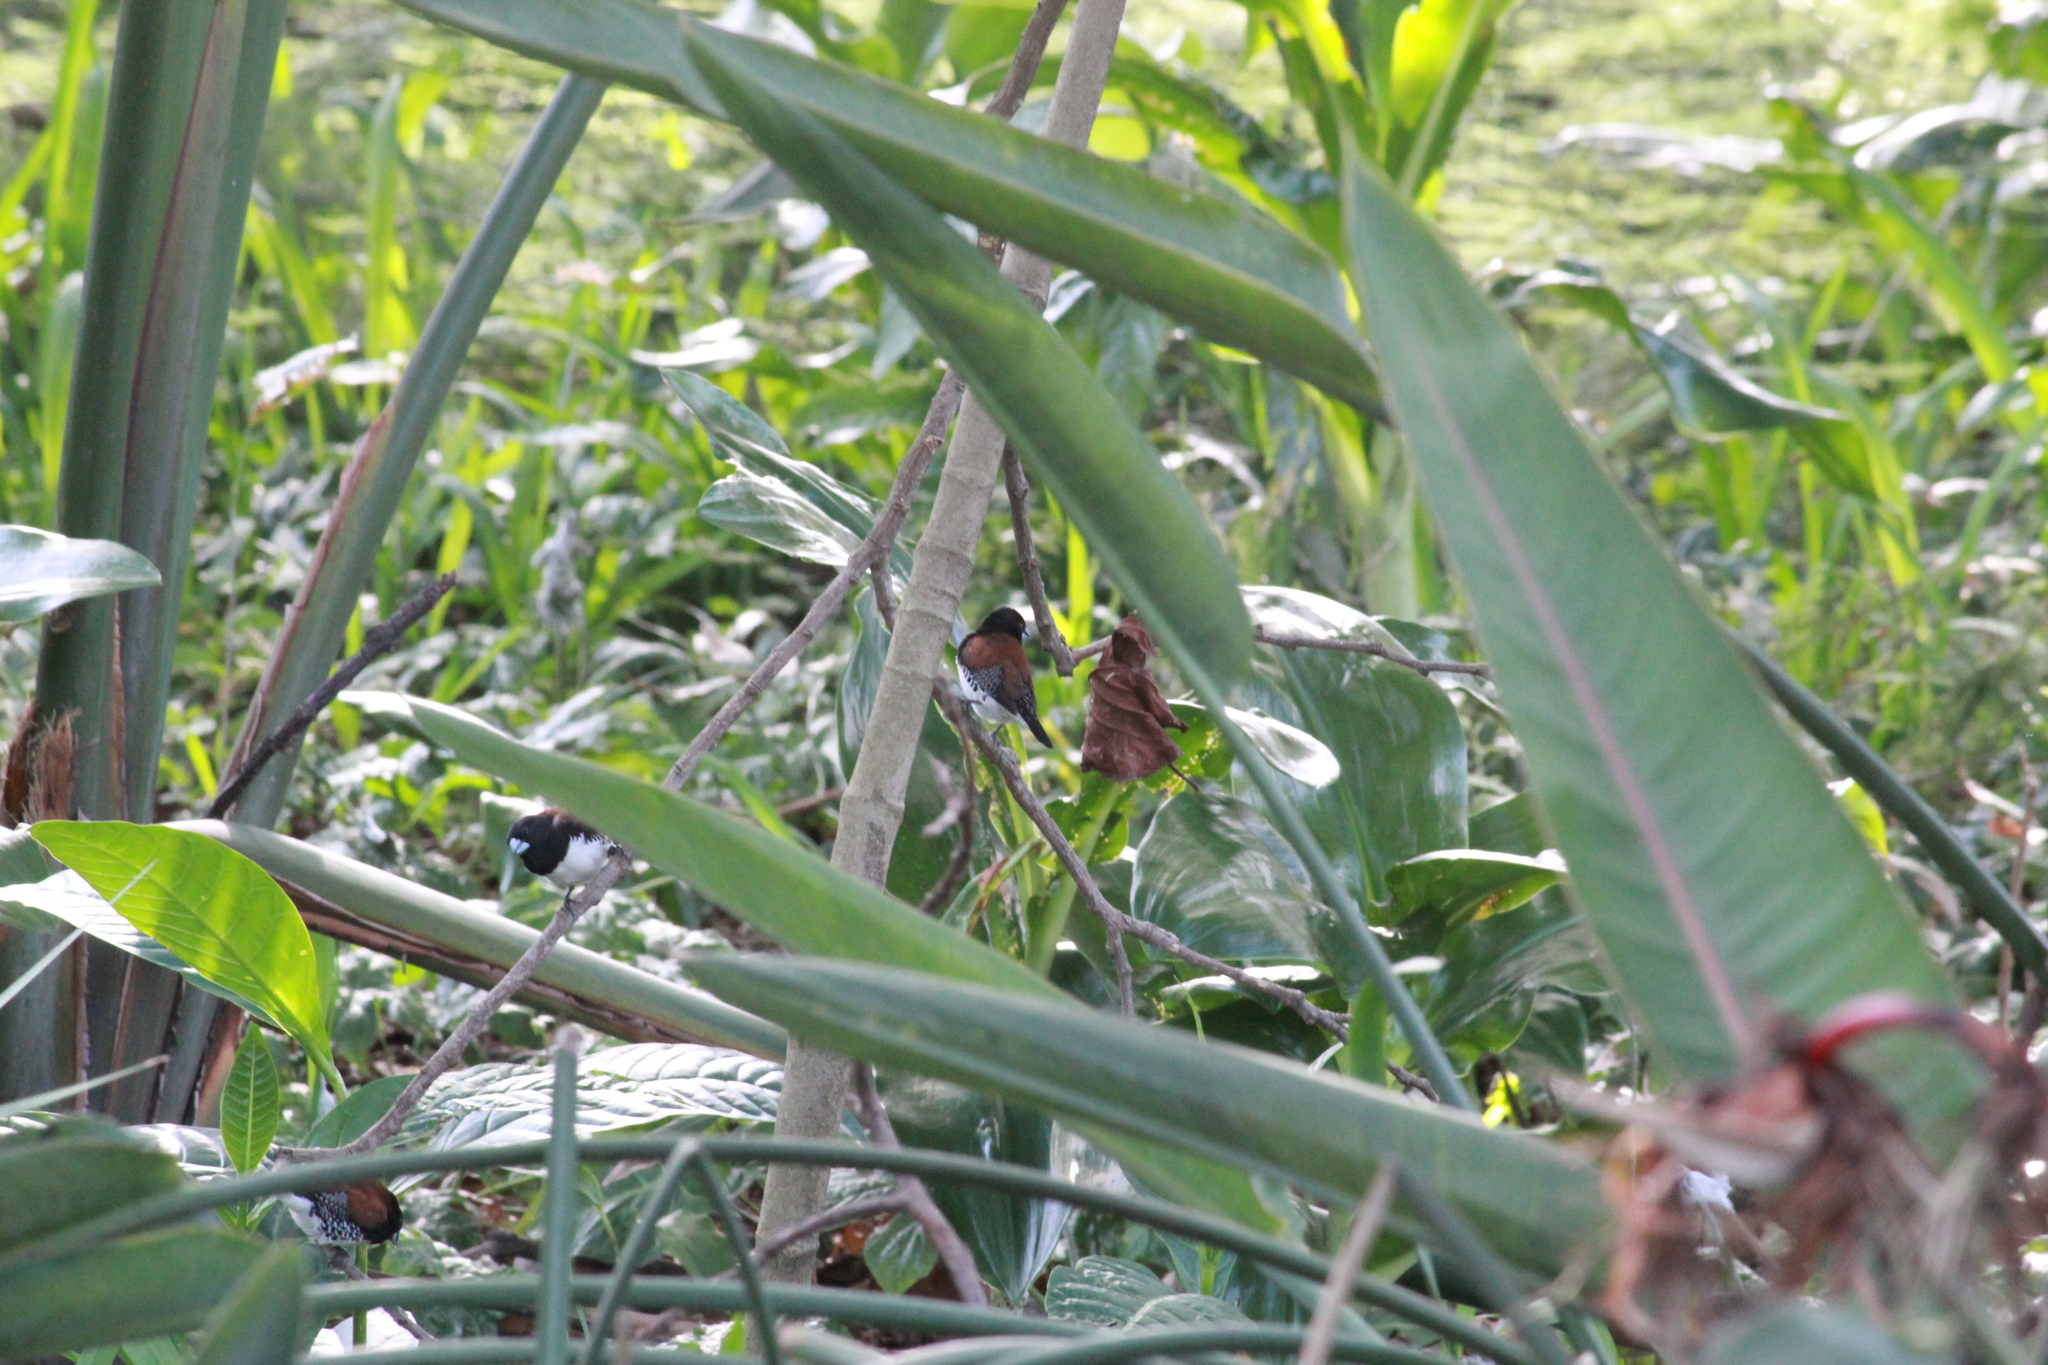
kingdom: Animalia
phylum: Chordata
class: Aves
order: Passeriformes
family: Estrildidae
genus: Lonchura
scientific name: Lonchura nigriceps
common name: Red-backed mannikin
